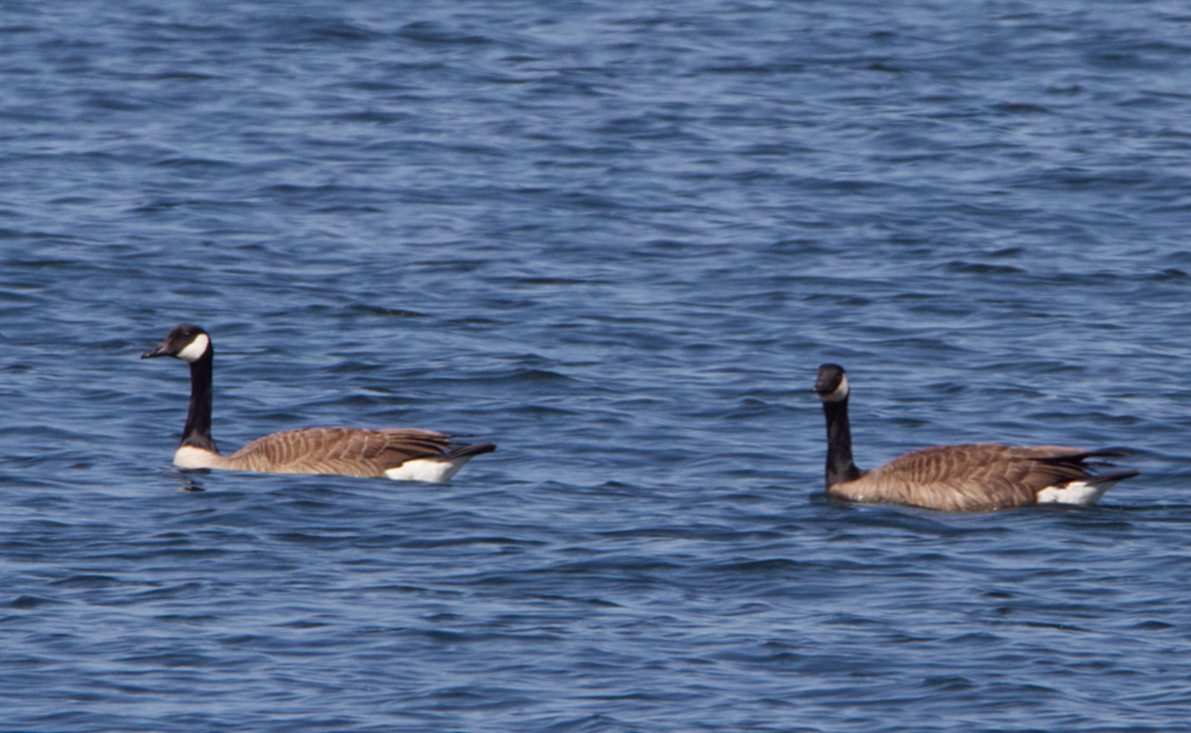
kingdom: Animalia
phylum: Chordata
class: Aves
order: Anseriformes
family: Anatidae
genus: Branta
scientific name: Branta canadensis
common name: Canada goose
